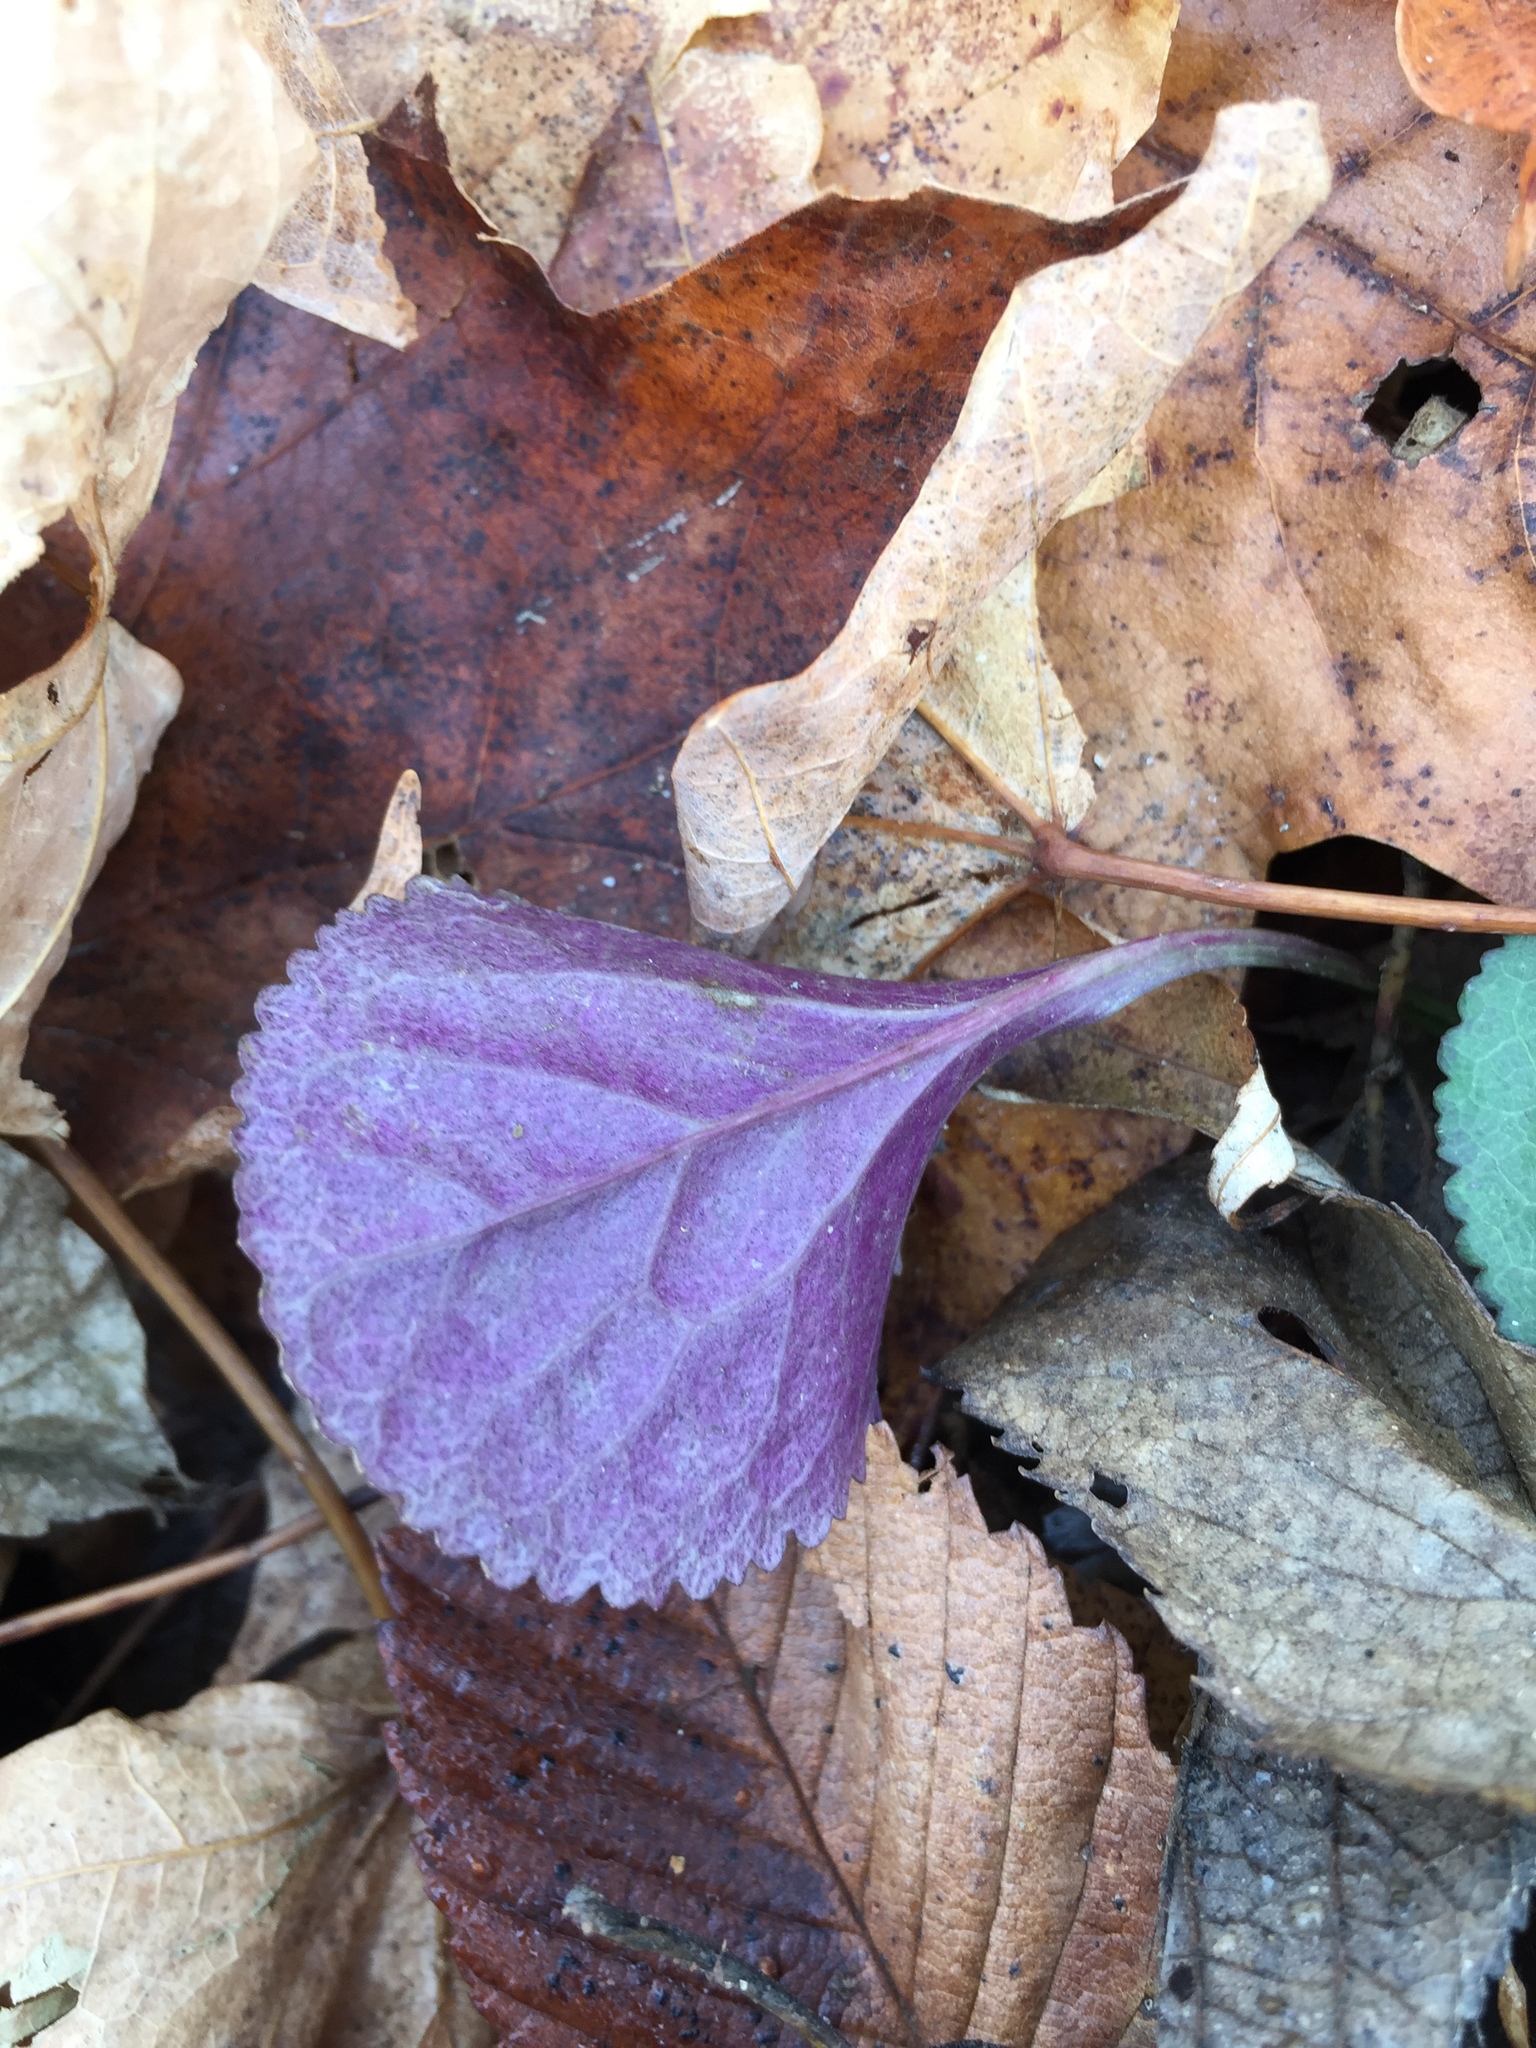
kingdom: Plantae
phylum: Tracheophyta
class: Magnoliopsida
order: Asterales
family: Asteraceae
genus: Packera
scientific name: Packera obovata
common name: Round-leaf ragwort
